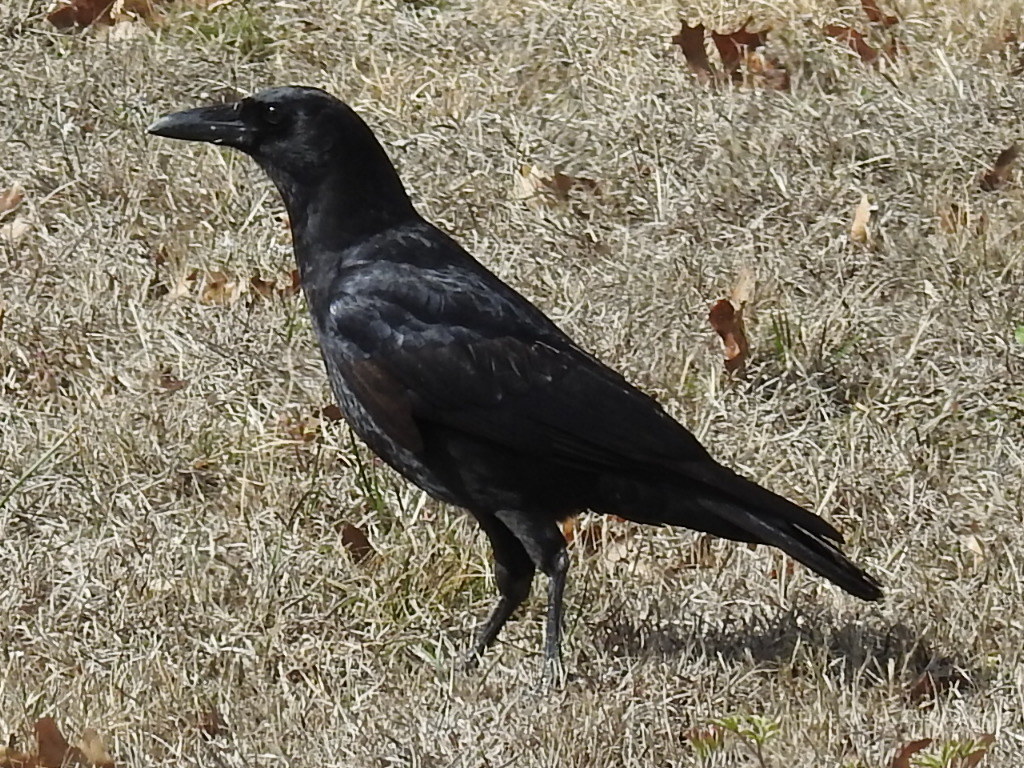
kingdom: Animalia
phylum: Chordata
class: Aves
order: Passeriformes
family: Corvidae
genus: Corvus
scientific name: Corvus brachyrhynchos
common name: American crow
